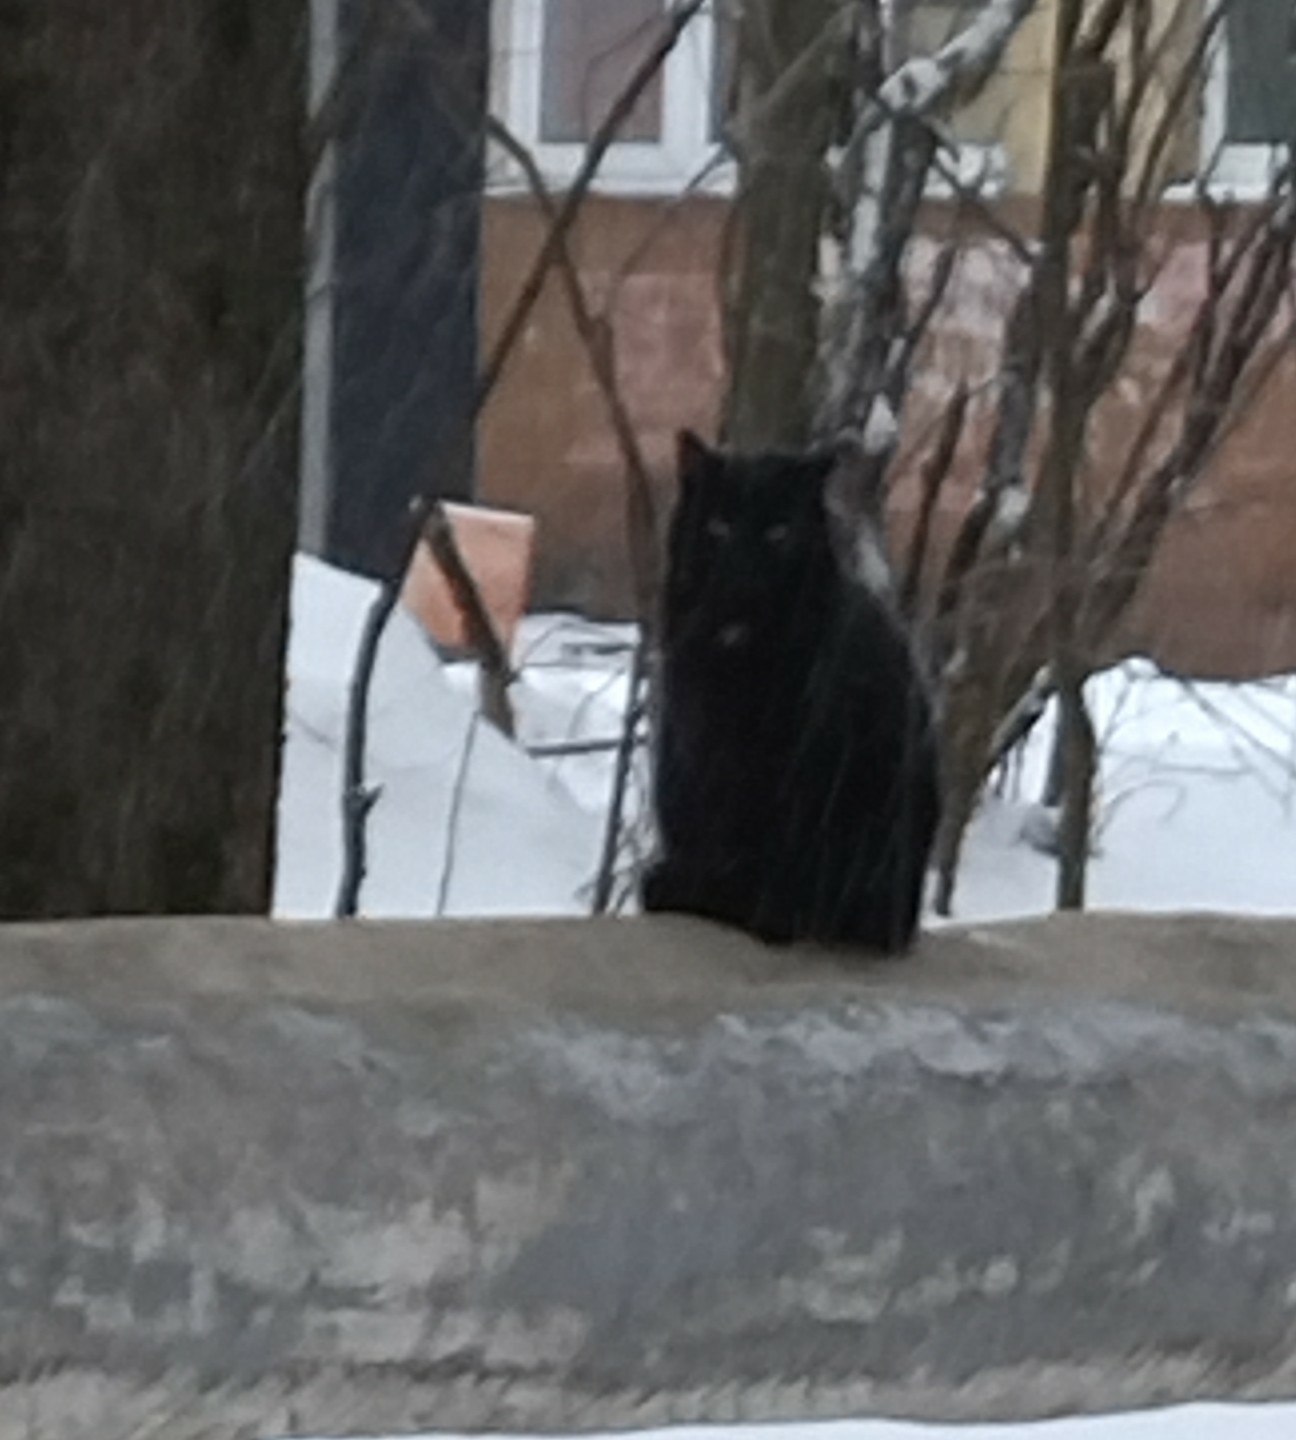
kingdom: Animalia
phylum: Chordata
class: Mammalia
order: Carnivora
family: Felidae
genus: Felis
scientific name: Felis catus
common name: Domestic cat
